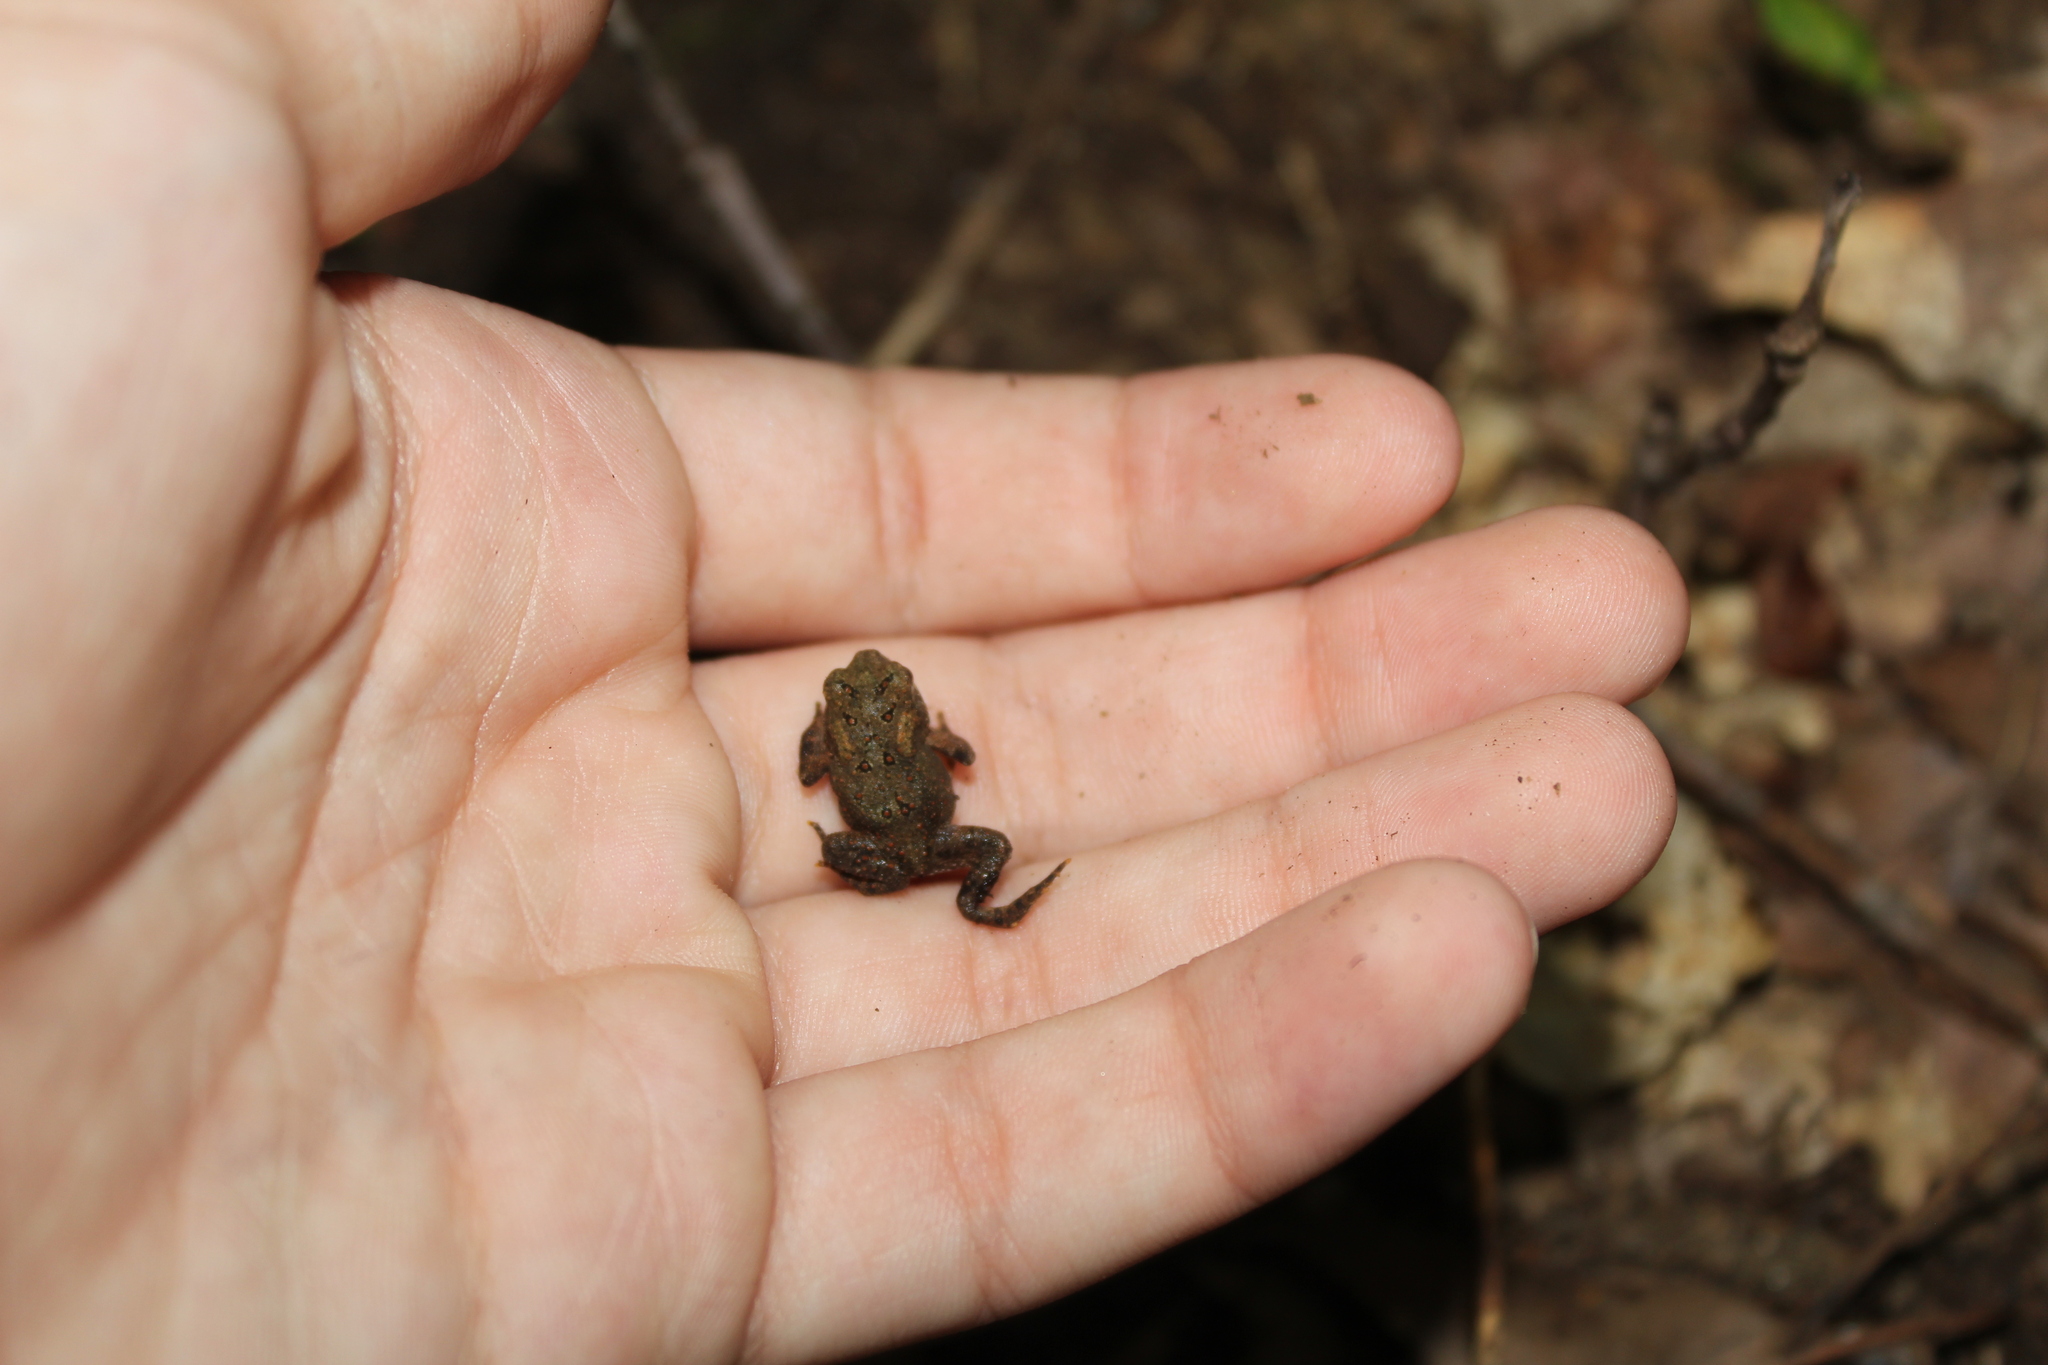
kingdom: Animalia
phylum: Chordata
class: Amphibia
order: Anura
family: Bufonidae
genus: Anaxyrus
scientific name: Anaxyrus americanus
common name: American toad
